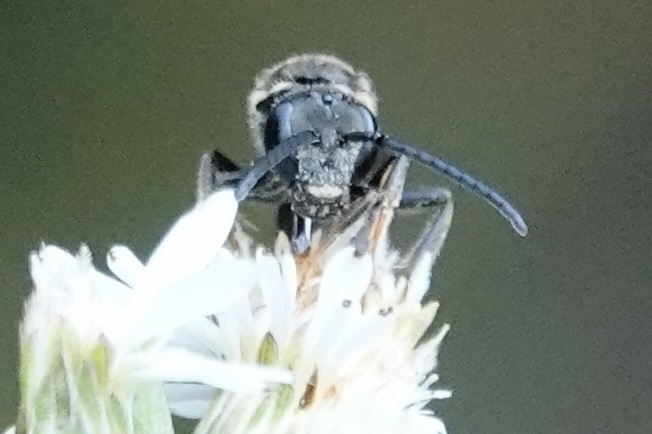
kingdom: Animalia
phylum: Arthropoda
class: Insecta
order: Hymenoptera
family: Halictidae
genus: Lasioglossum
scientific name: Lasioglossum fuscipenne
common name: Brown-winged sweat bee
